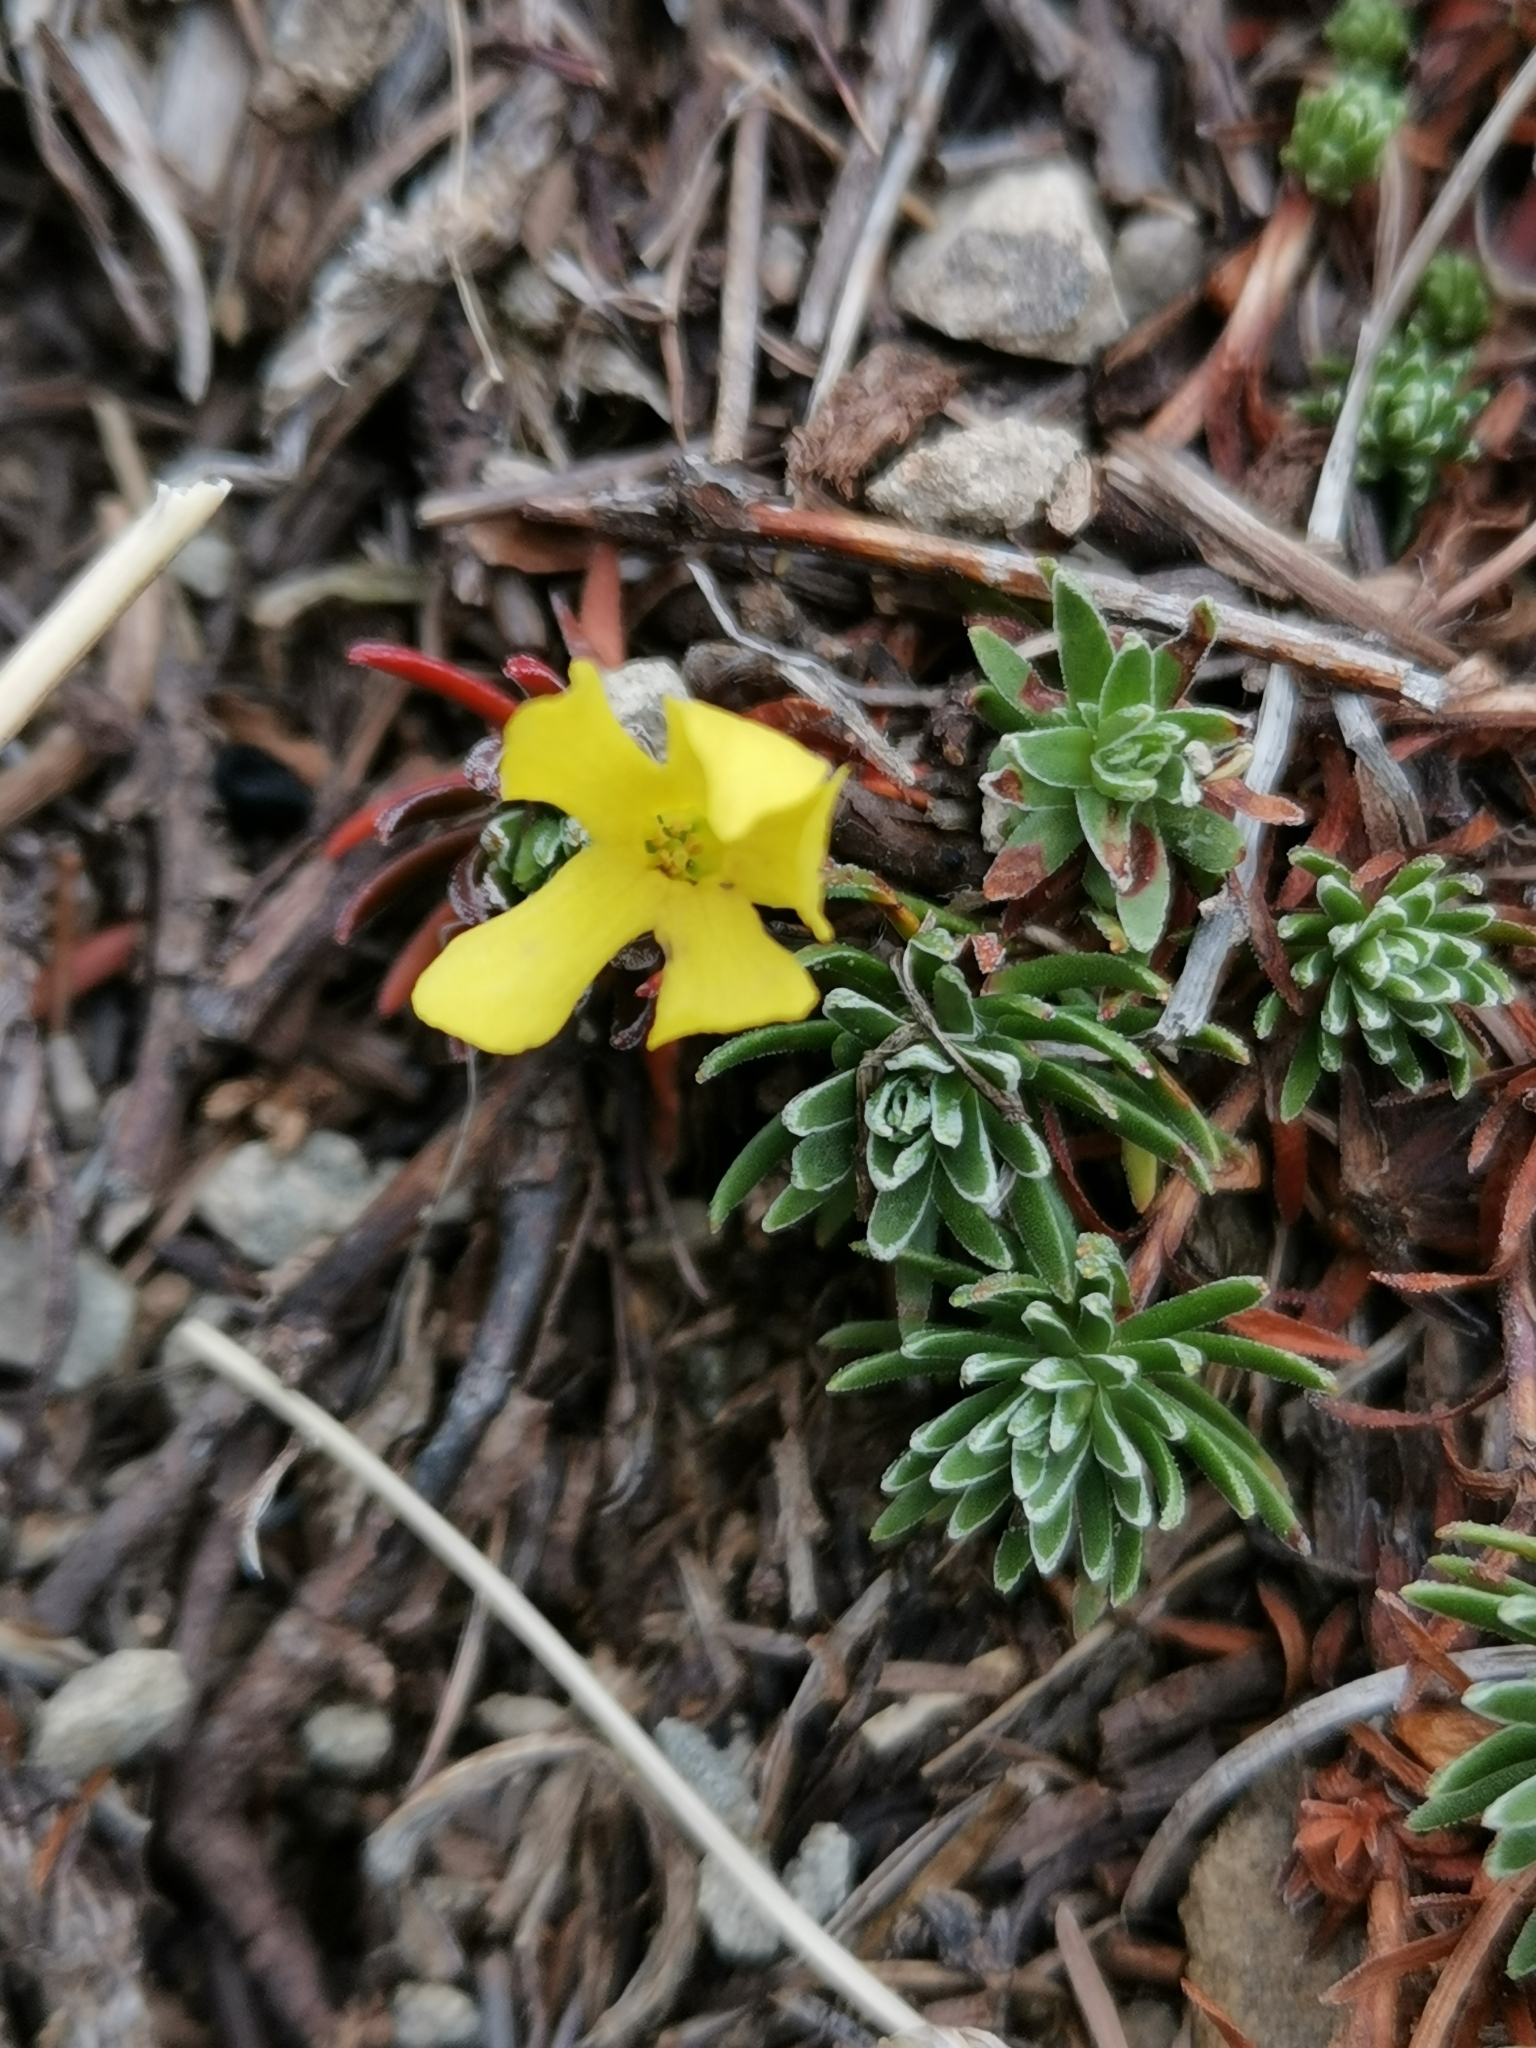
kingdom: Plantae
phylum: Tracheophyta
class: Magnoliopsida
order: Ericales
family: Primulaceae
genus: Androsace
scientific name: Androsace vitaliana
